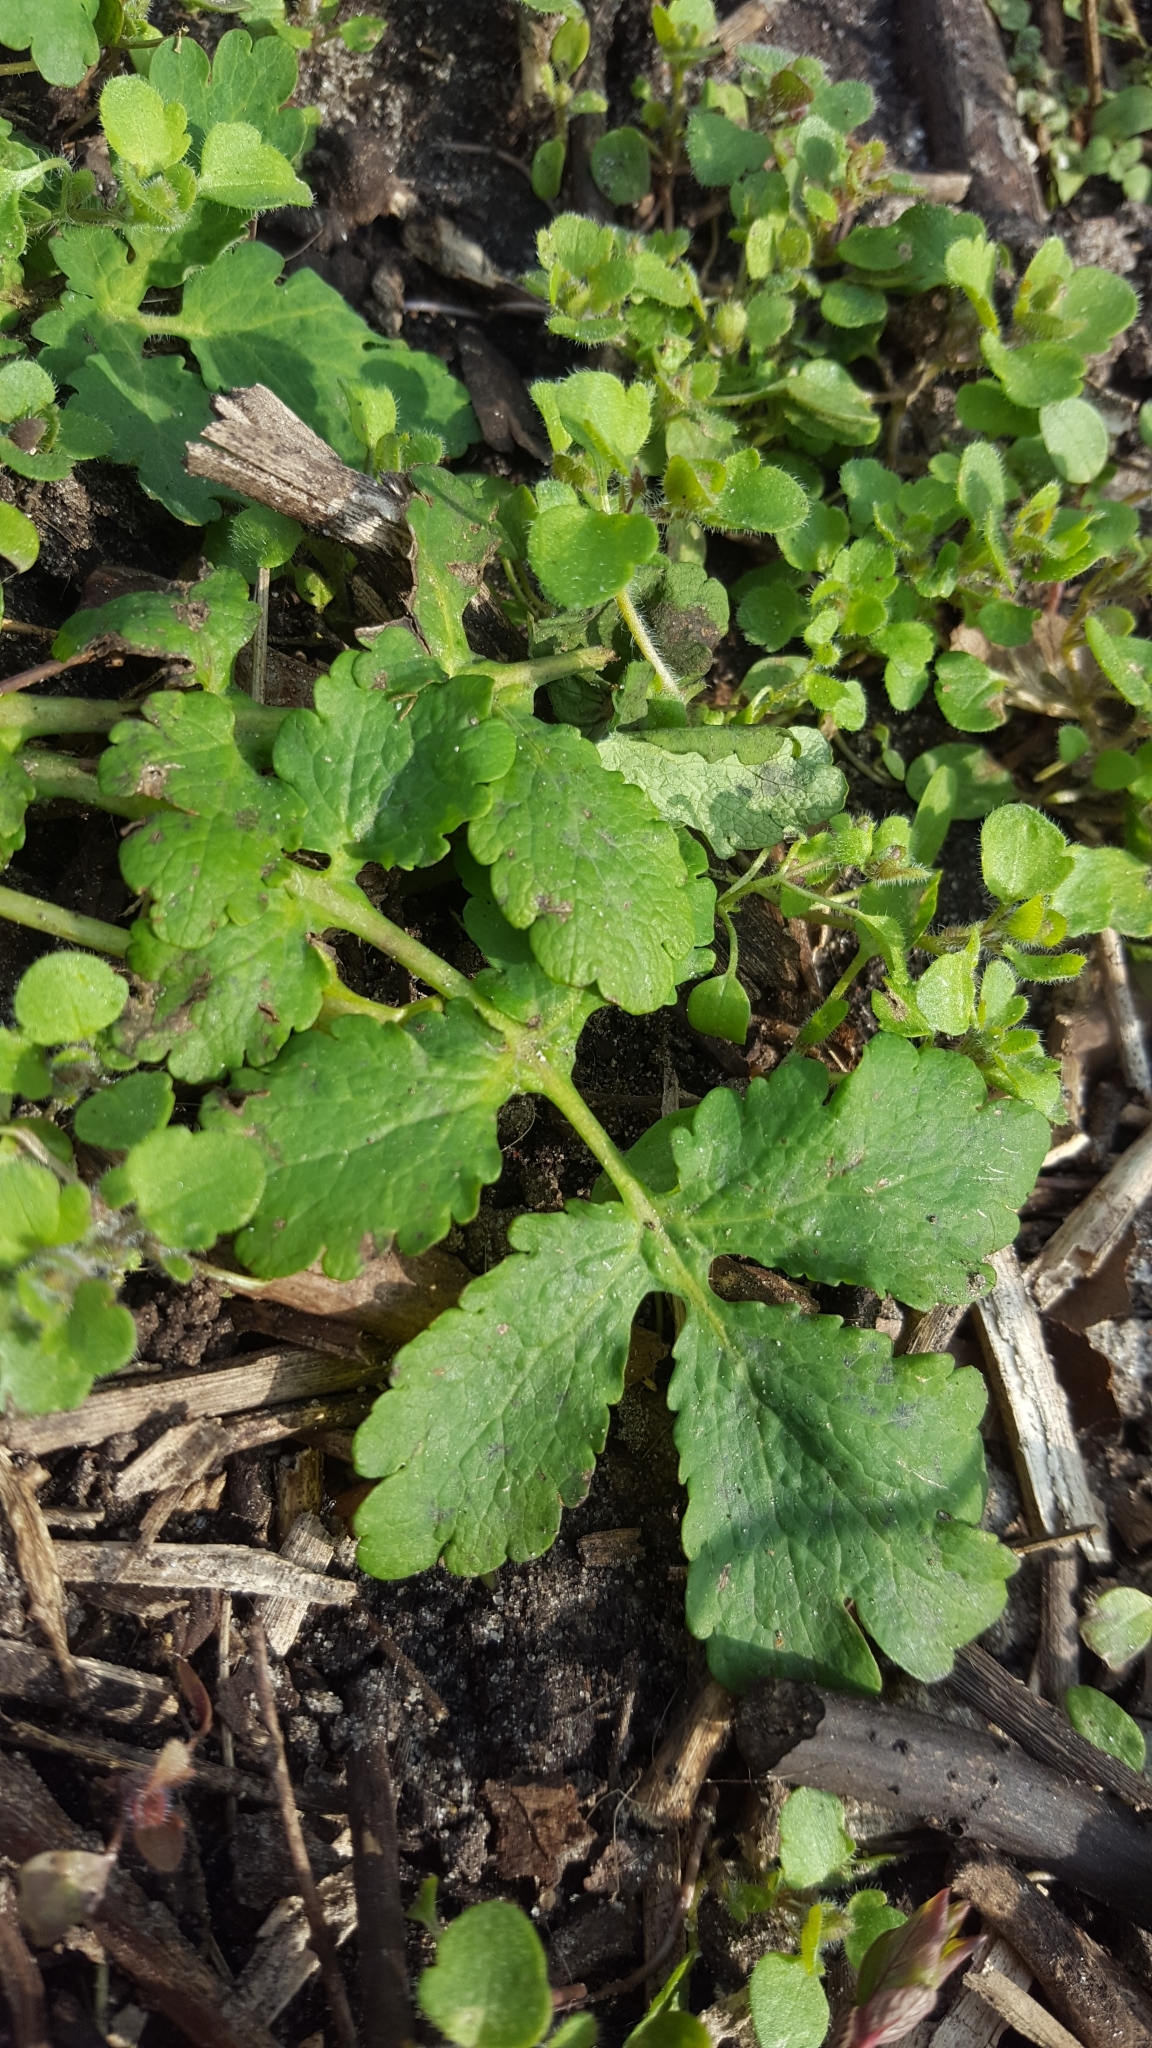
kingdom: Plantae
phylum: Tracheophyta
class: Magnoliopsida
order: Ranunculales
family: Papaveraceae
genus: Chelidonium
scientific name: Chelidonium majus
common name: Greater celandine
